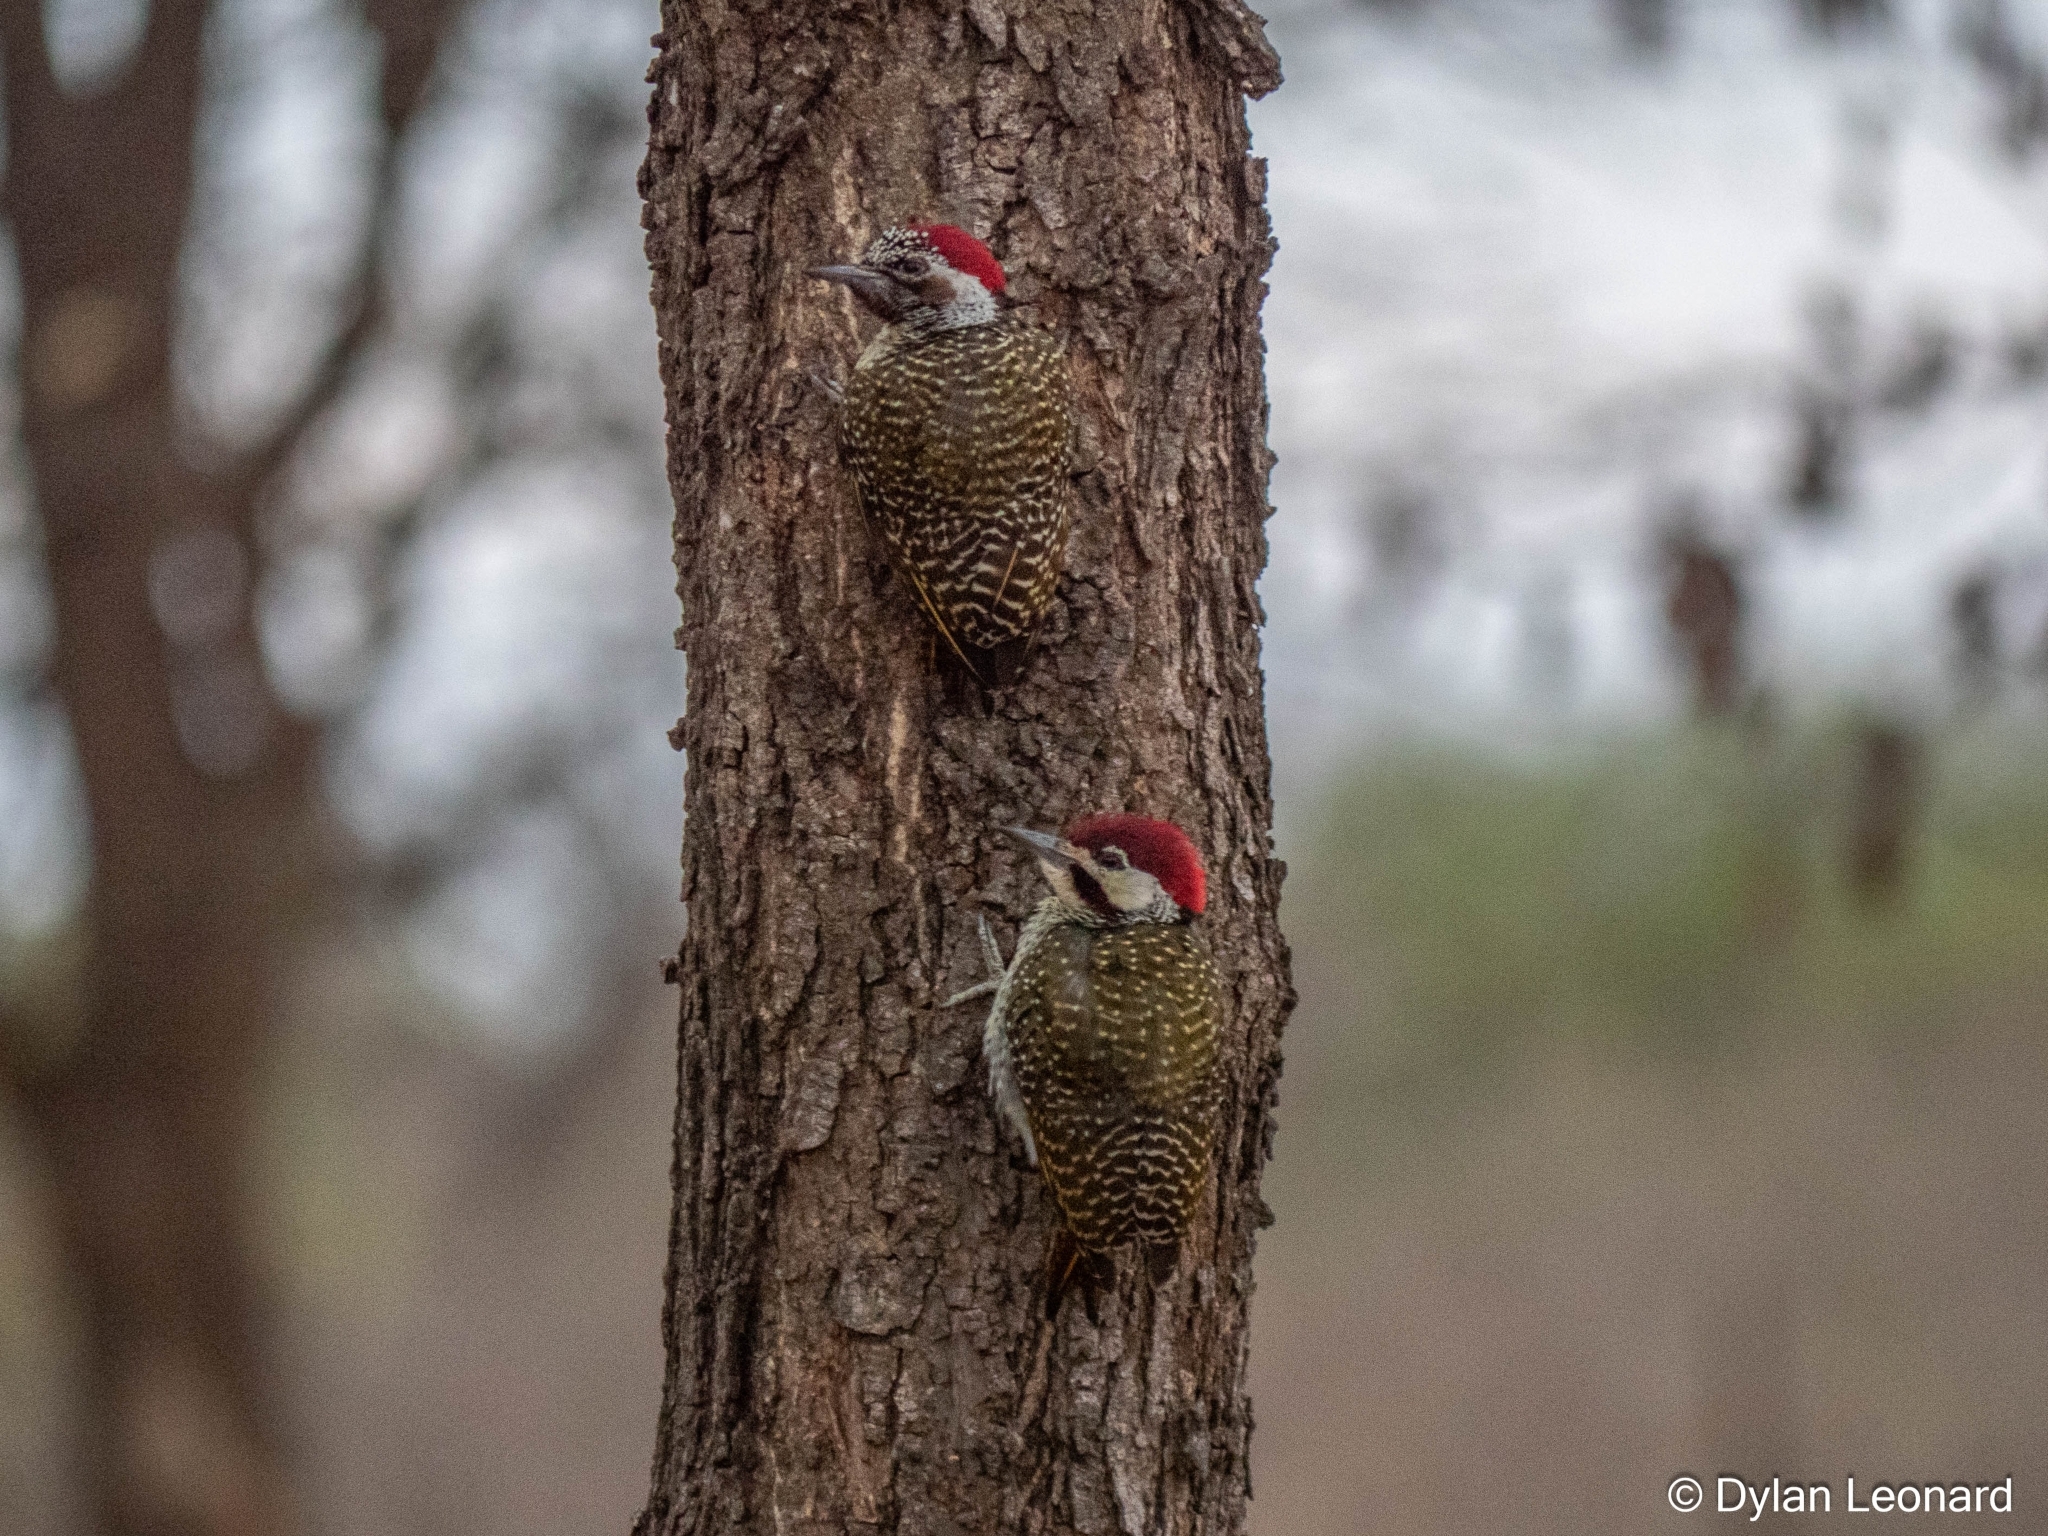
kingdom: Animalia
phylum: Chordata
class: Aves
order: Piciformes
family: Picidae
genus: Campethera
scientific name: Campethera bennettii
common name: Bennett's woodpecker
